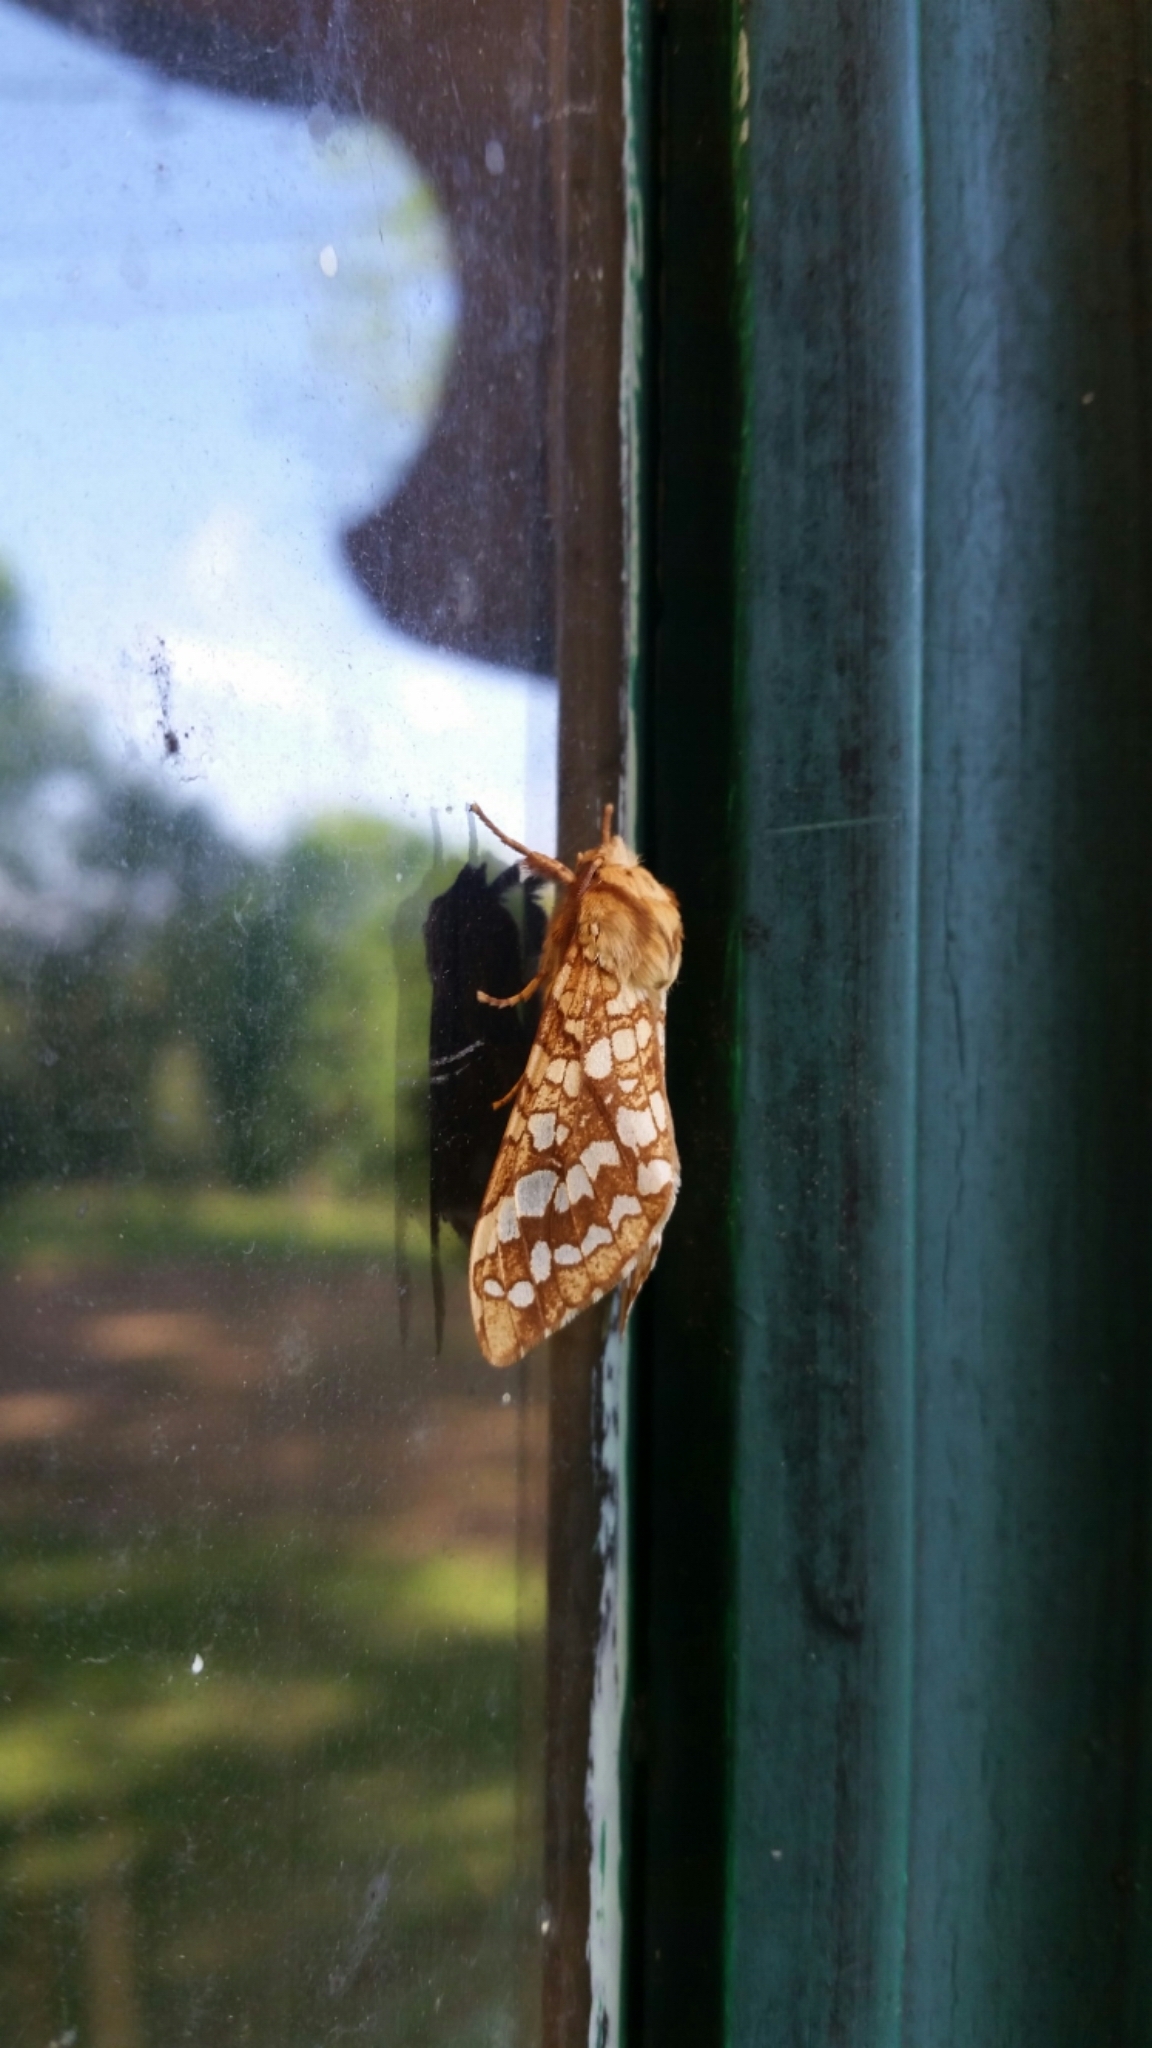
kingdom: Animalia
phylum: Arthropoda
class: Insecta
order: Lepidoptera
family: Erebidae
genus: Lophocampa
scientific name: Lophocampa caryae
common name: Hickory tussock moth
